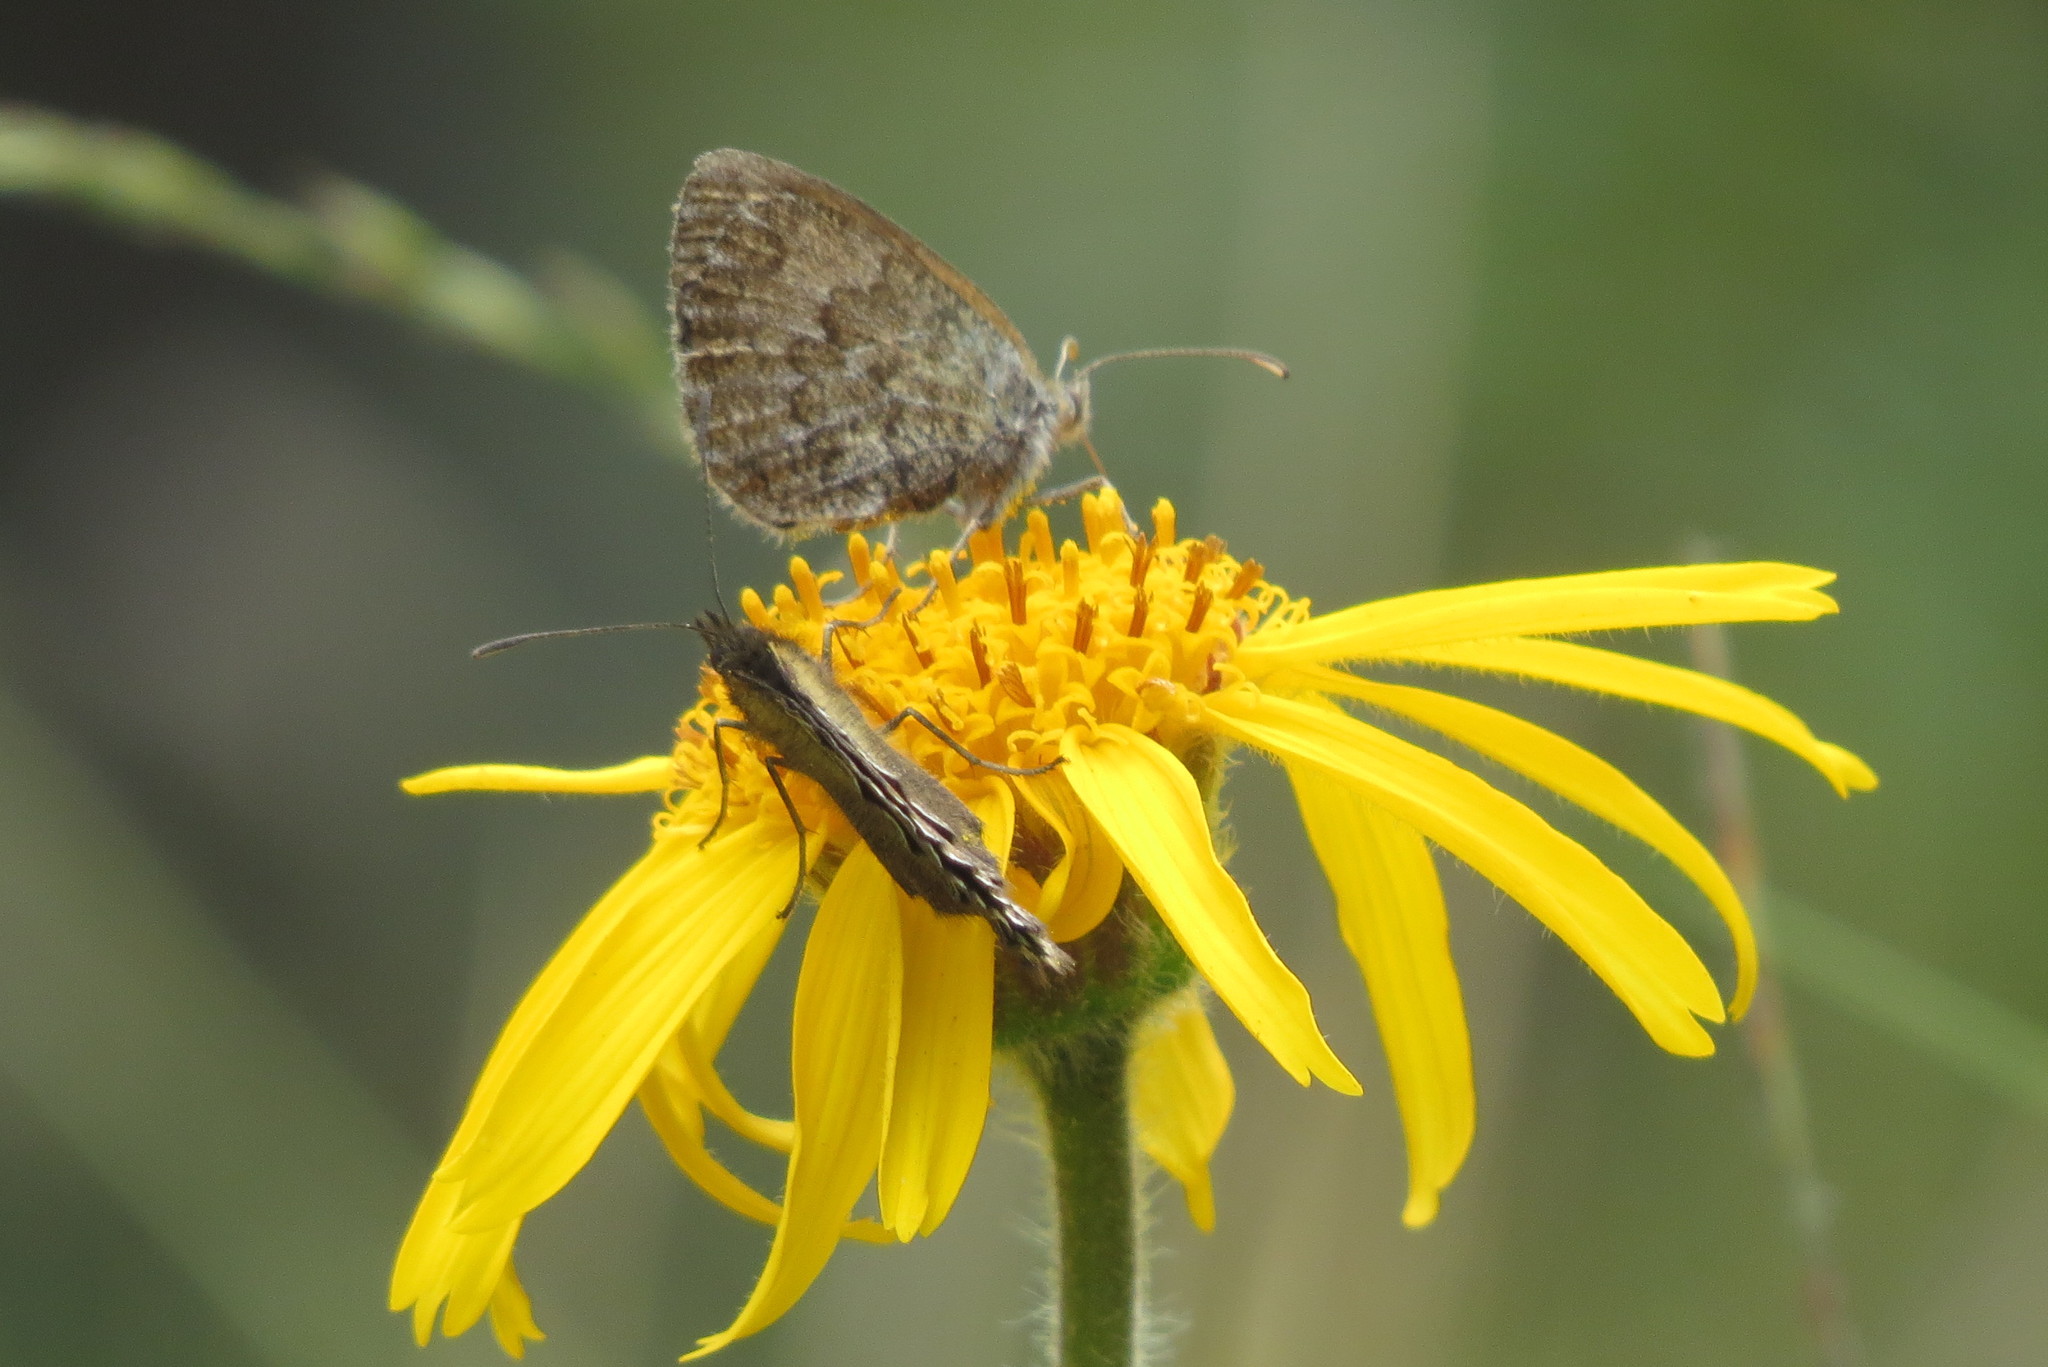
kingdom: Animalia
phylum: Arthropoda
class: Insecta
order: Lepidoptera
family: Nymphalidae
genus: Erebia
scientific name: Erebia tyndarus
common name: Swiss brassy ringlet
